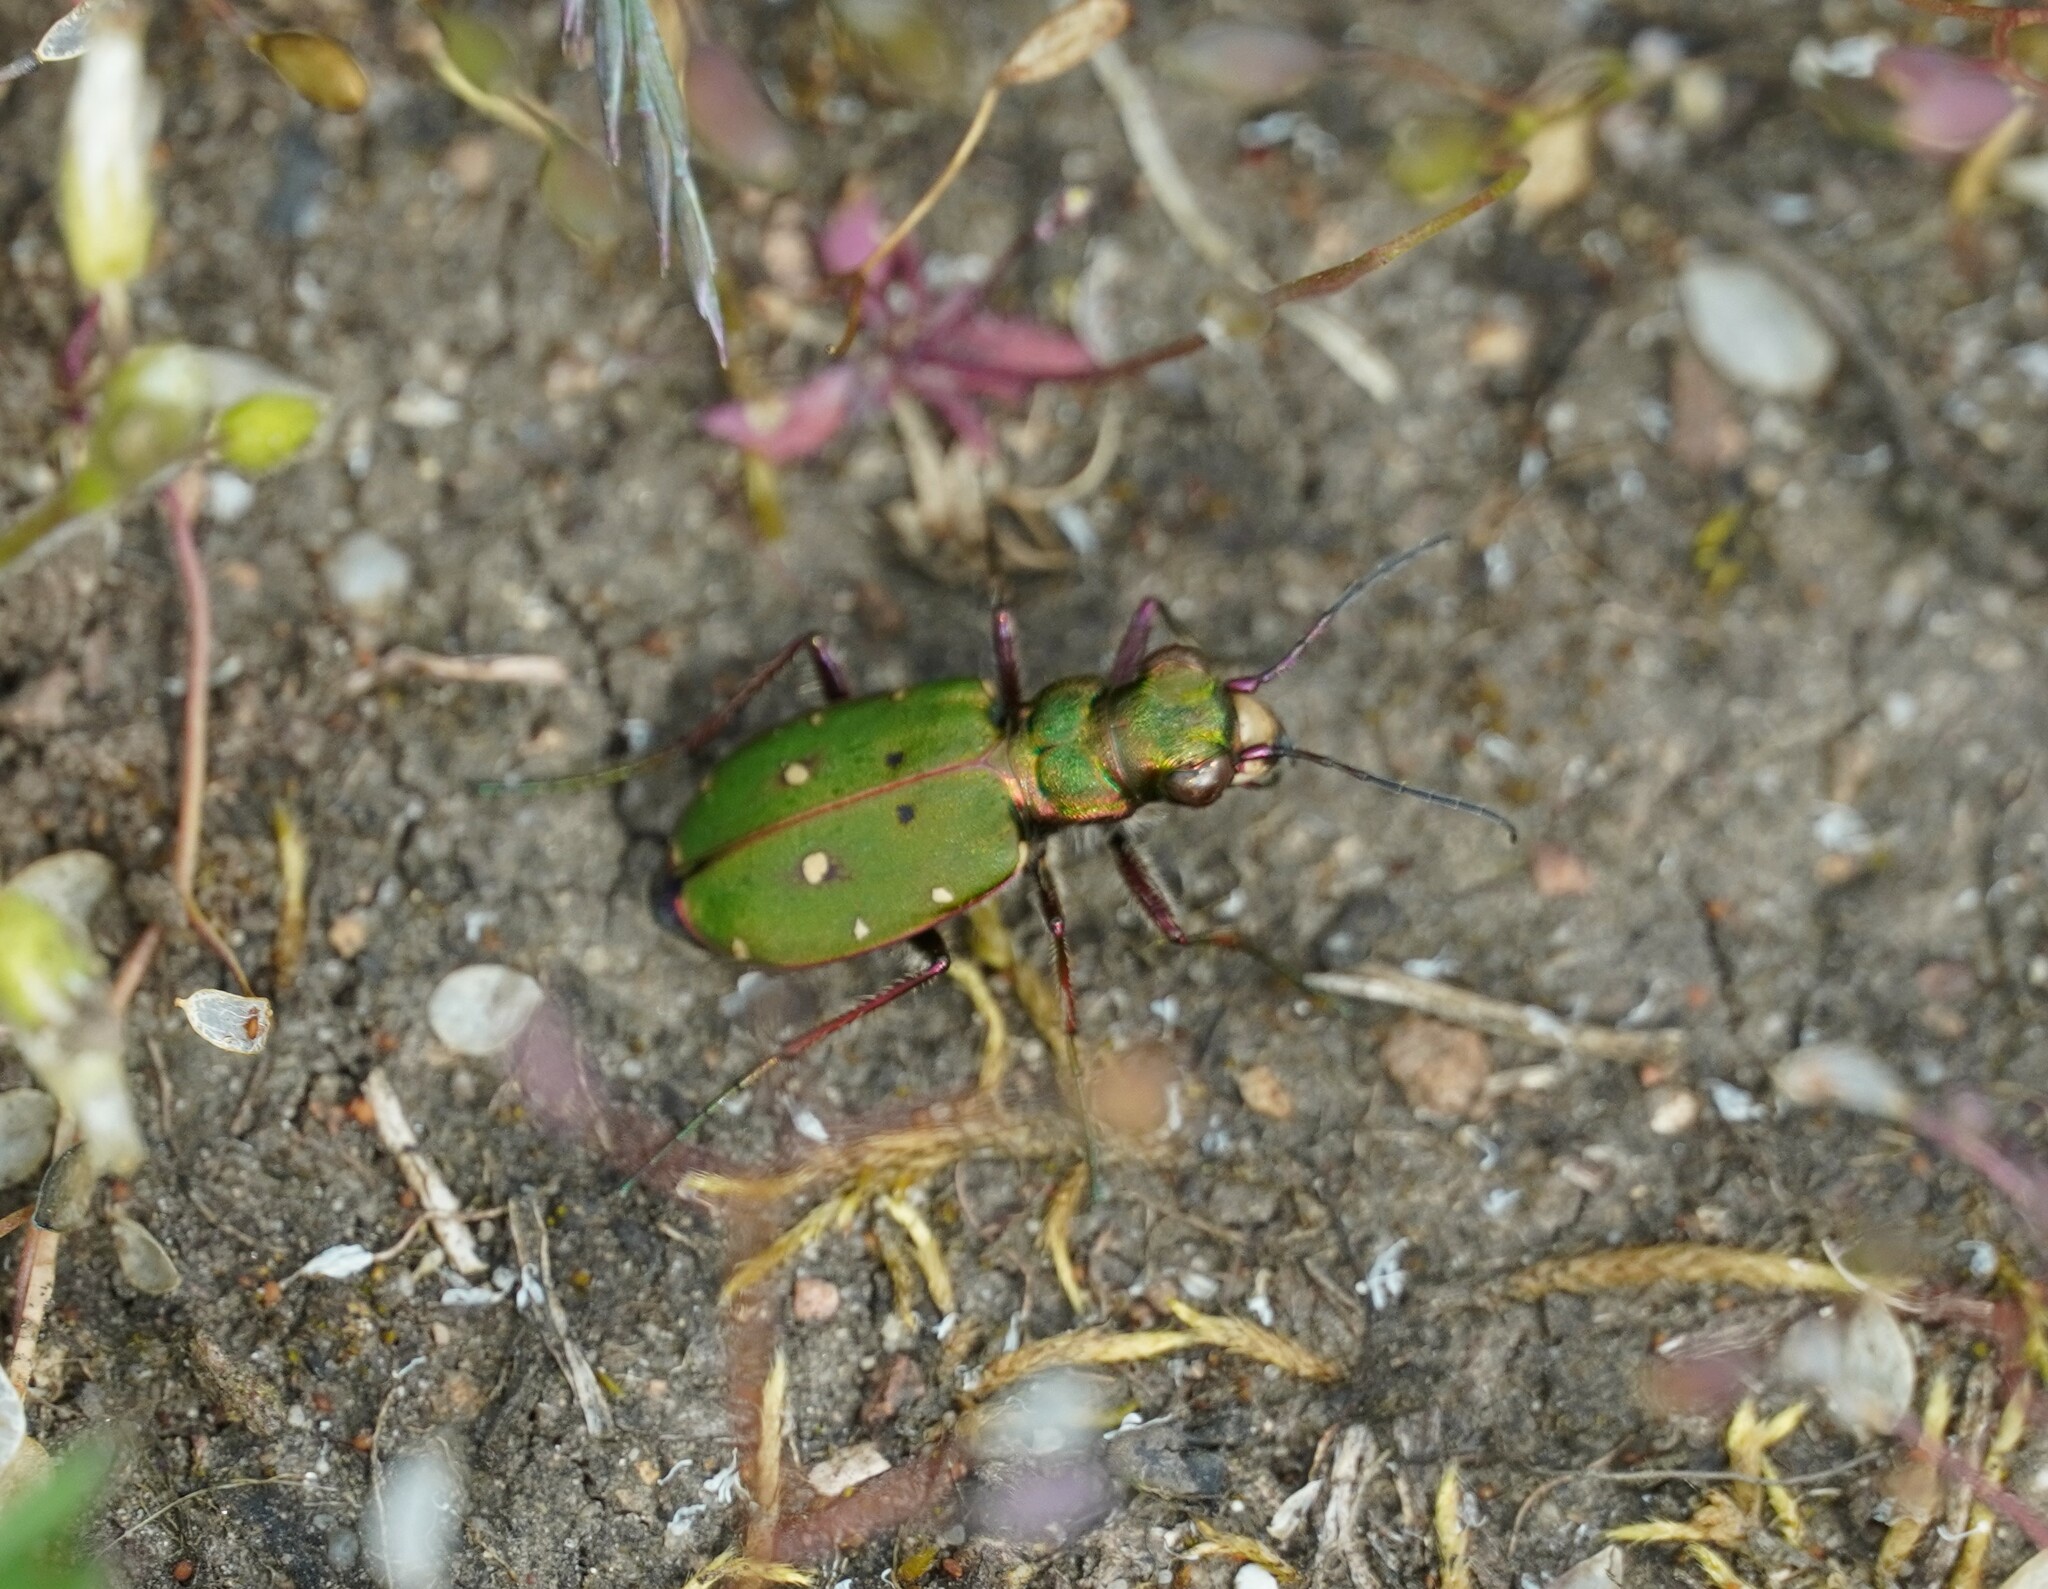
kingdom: Animalia
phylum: Arthropoda
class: Insecta
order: Coleoptera
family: Carabidae
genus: Cicindela
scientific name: Cicindela campestris
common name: Common tiger beetle
